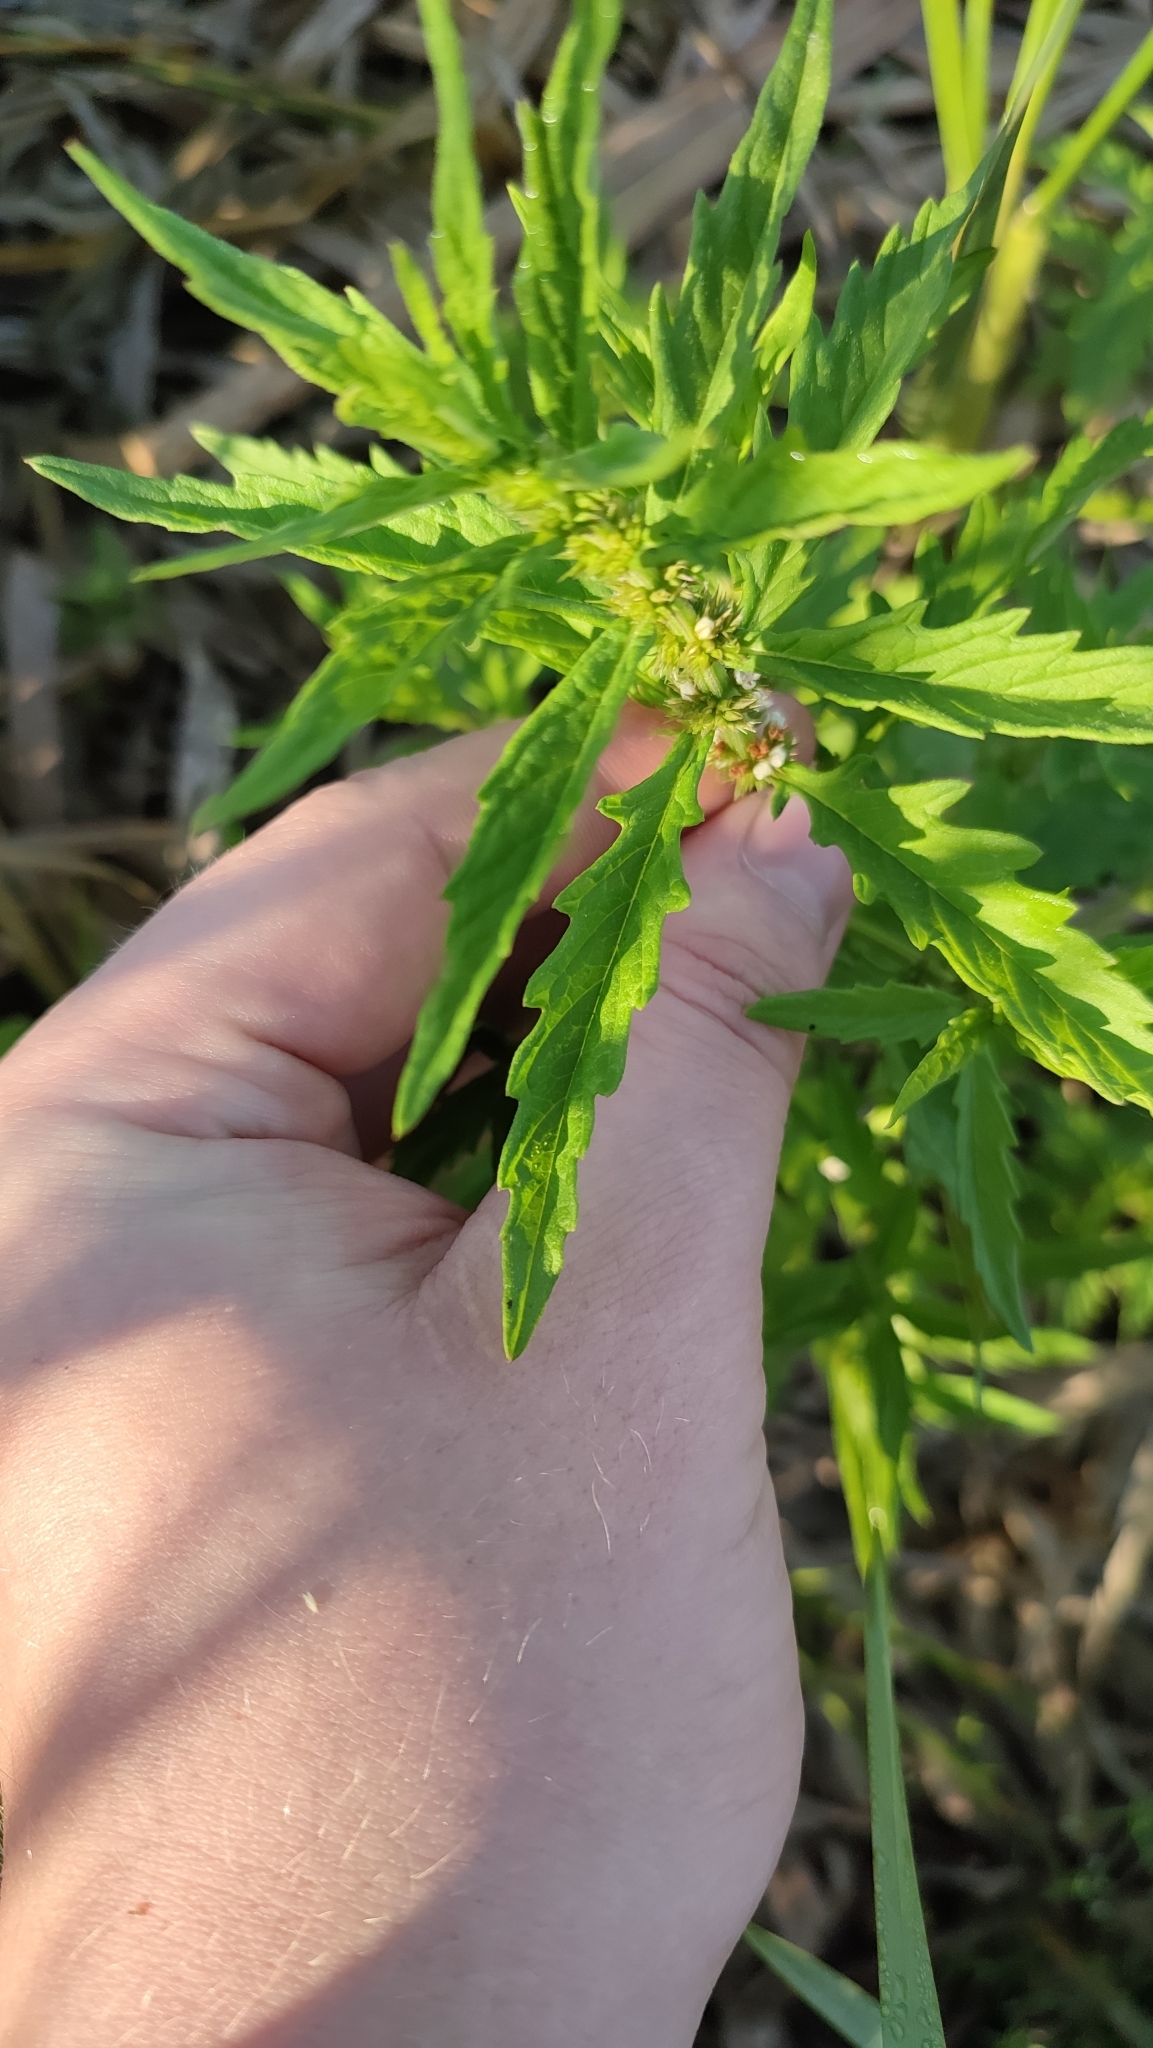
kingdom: Plantae
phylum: Tracheophyta
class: Magnoliopsida
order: Lamiales
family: Lamiaceae
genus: Lycopus
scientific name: Lycopus europaeus
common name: European bugleweed
